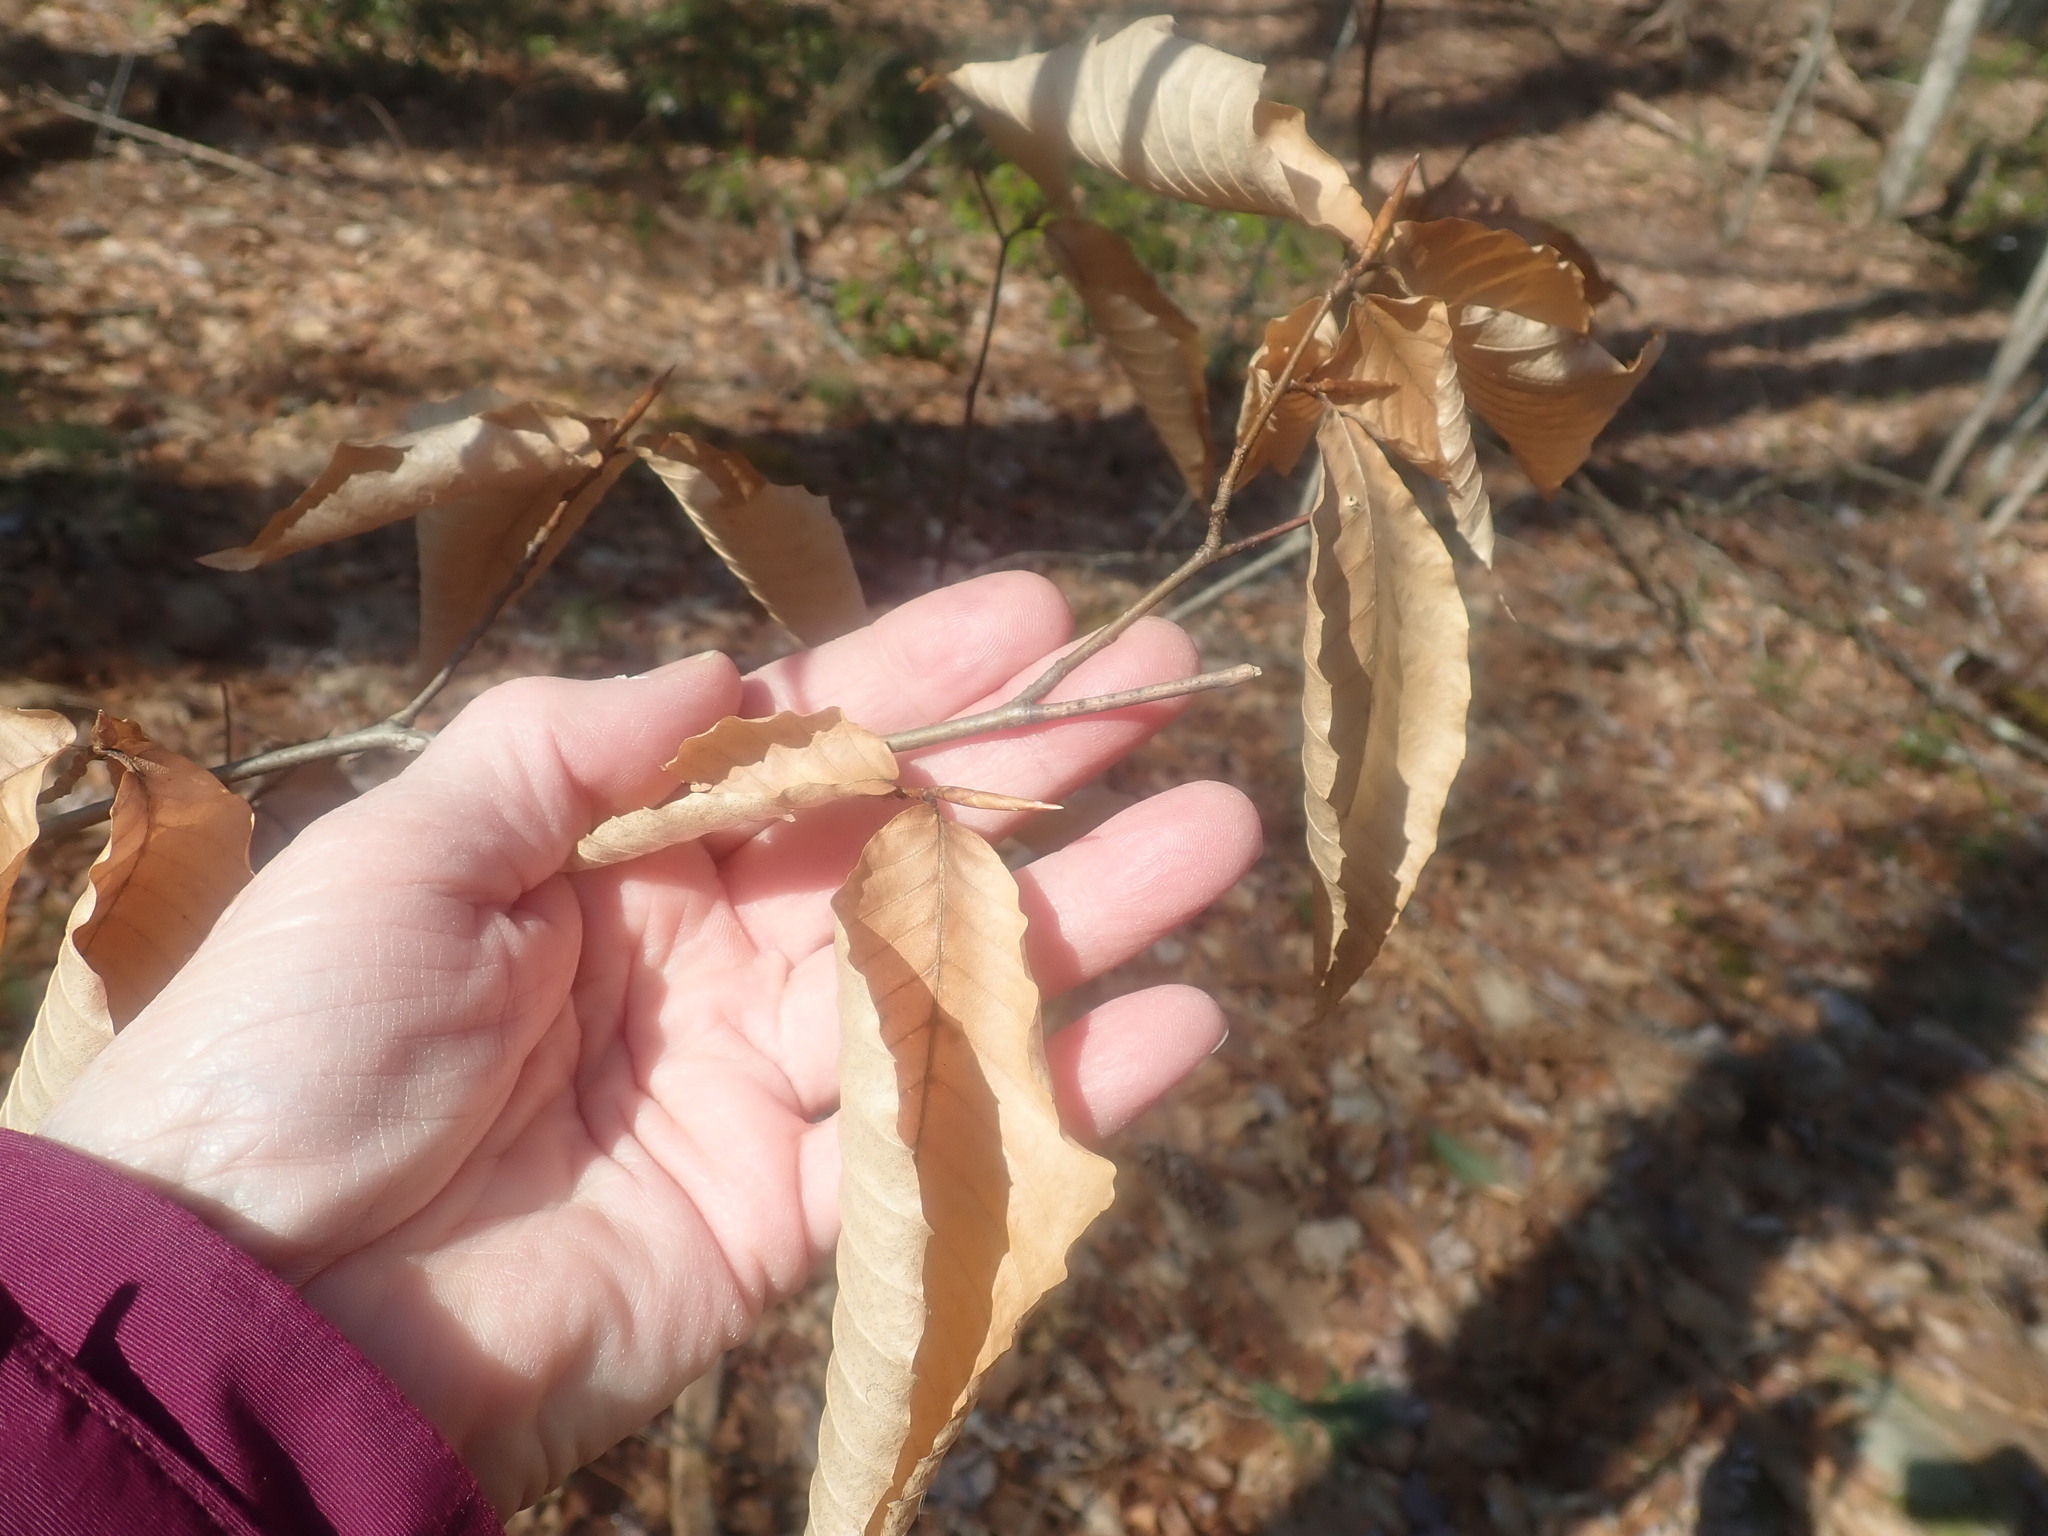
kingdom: Plantae
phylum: Tracheophyta
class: Magnoliopsida
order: Fagales
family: Fagaceae
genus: Fagus
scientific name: Fagus grandifolia
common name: American beech
